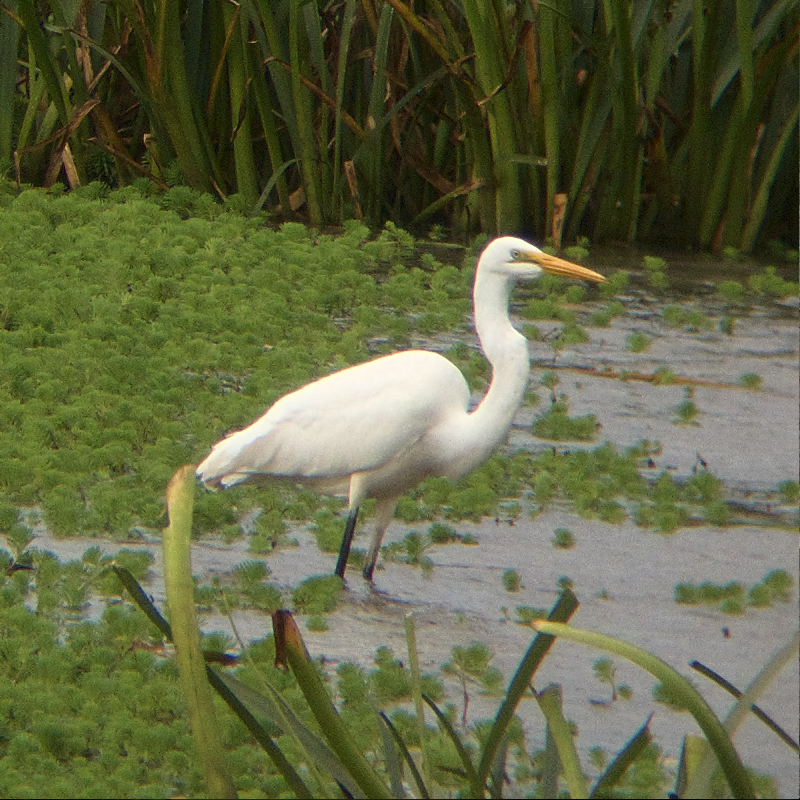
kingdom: Animalia
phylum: Chordata
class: Aves
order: Pelecaniformes
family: Ardeidae
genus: Ardea
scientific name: Ardea alba
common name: Great egret
